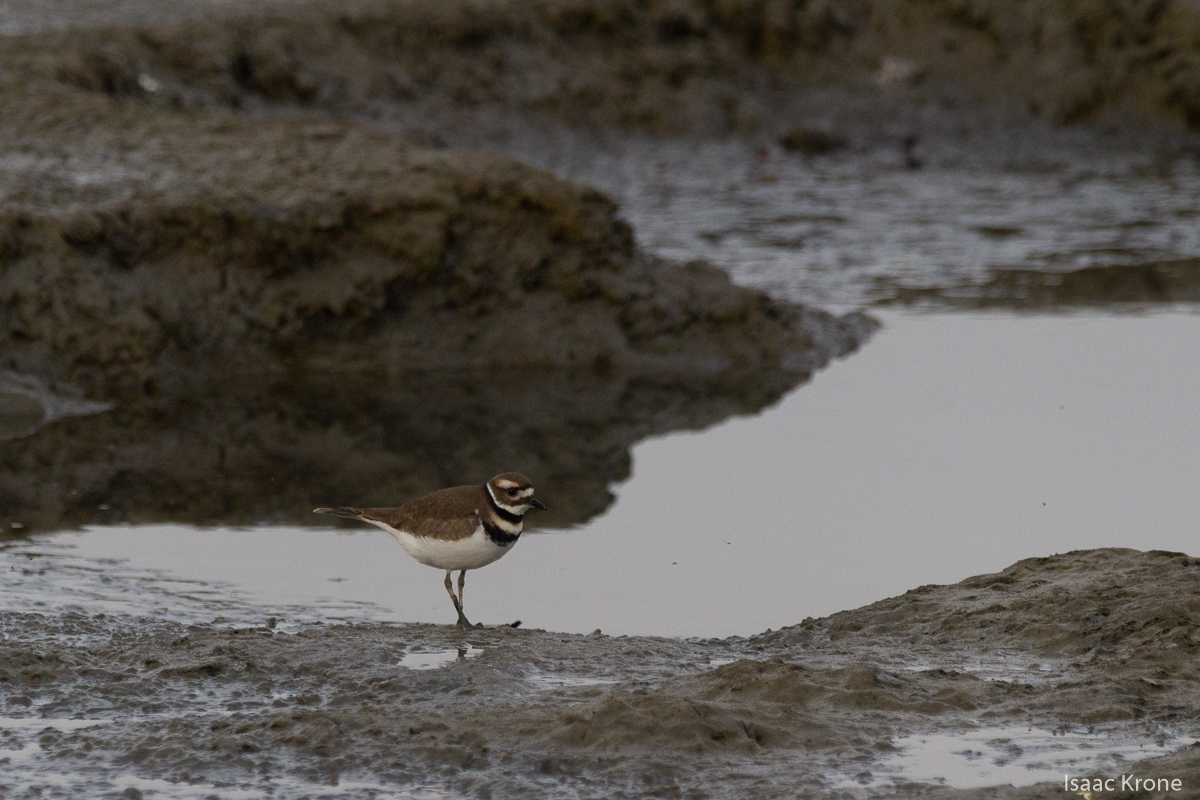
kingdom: Animalia
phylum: Chordata
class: Aves
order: Charadriiformes
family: Charadriidae
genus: Charadrius
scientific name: Charadrius vociferus
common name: Killdeer
